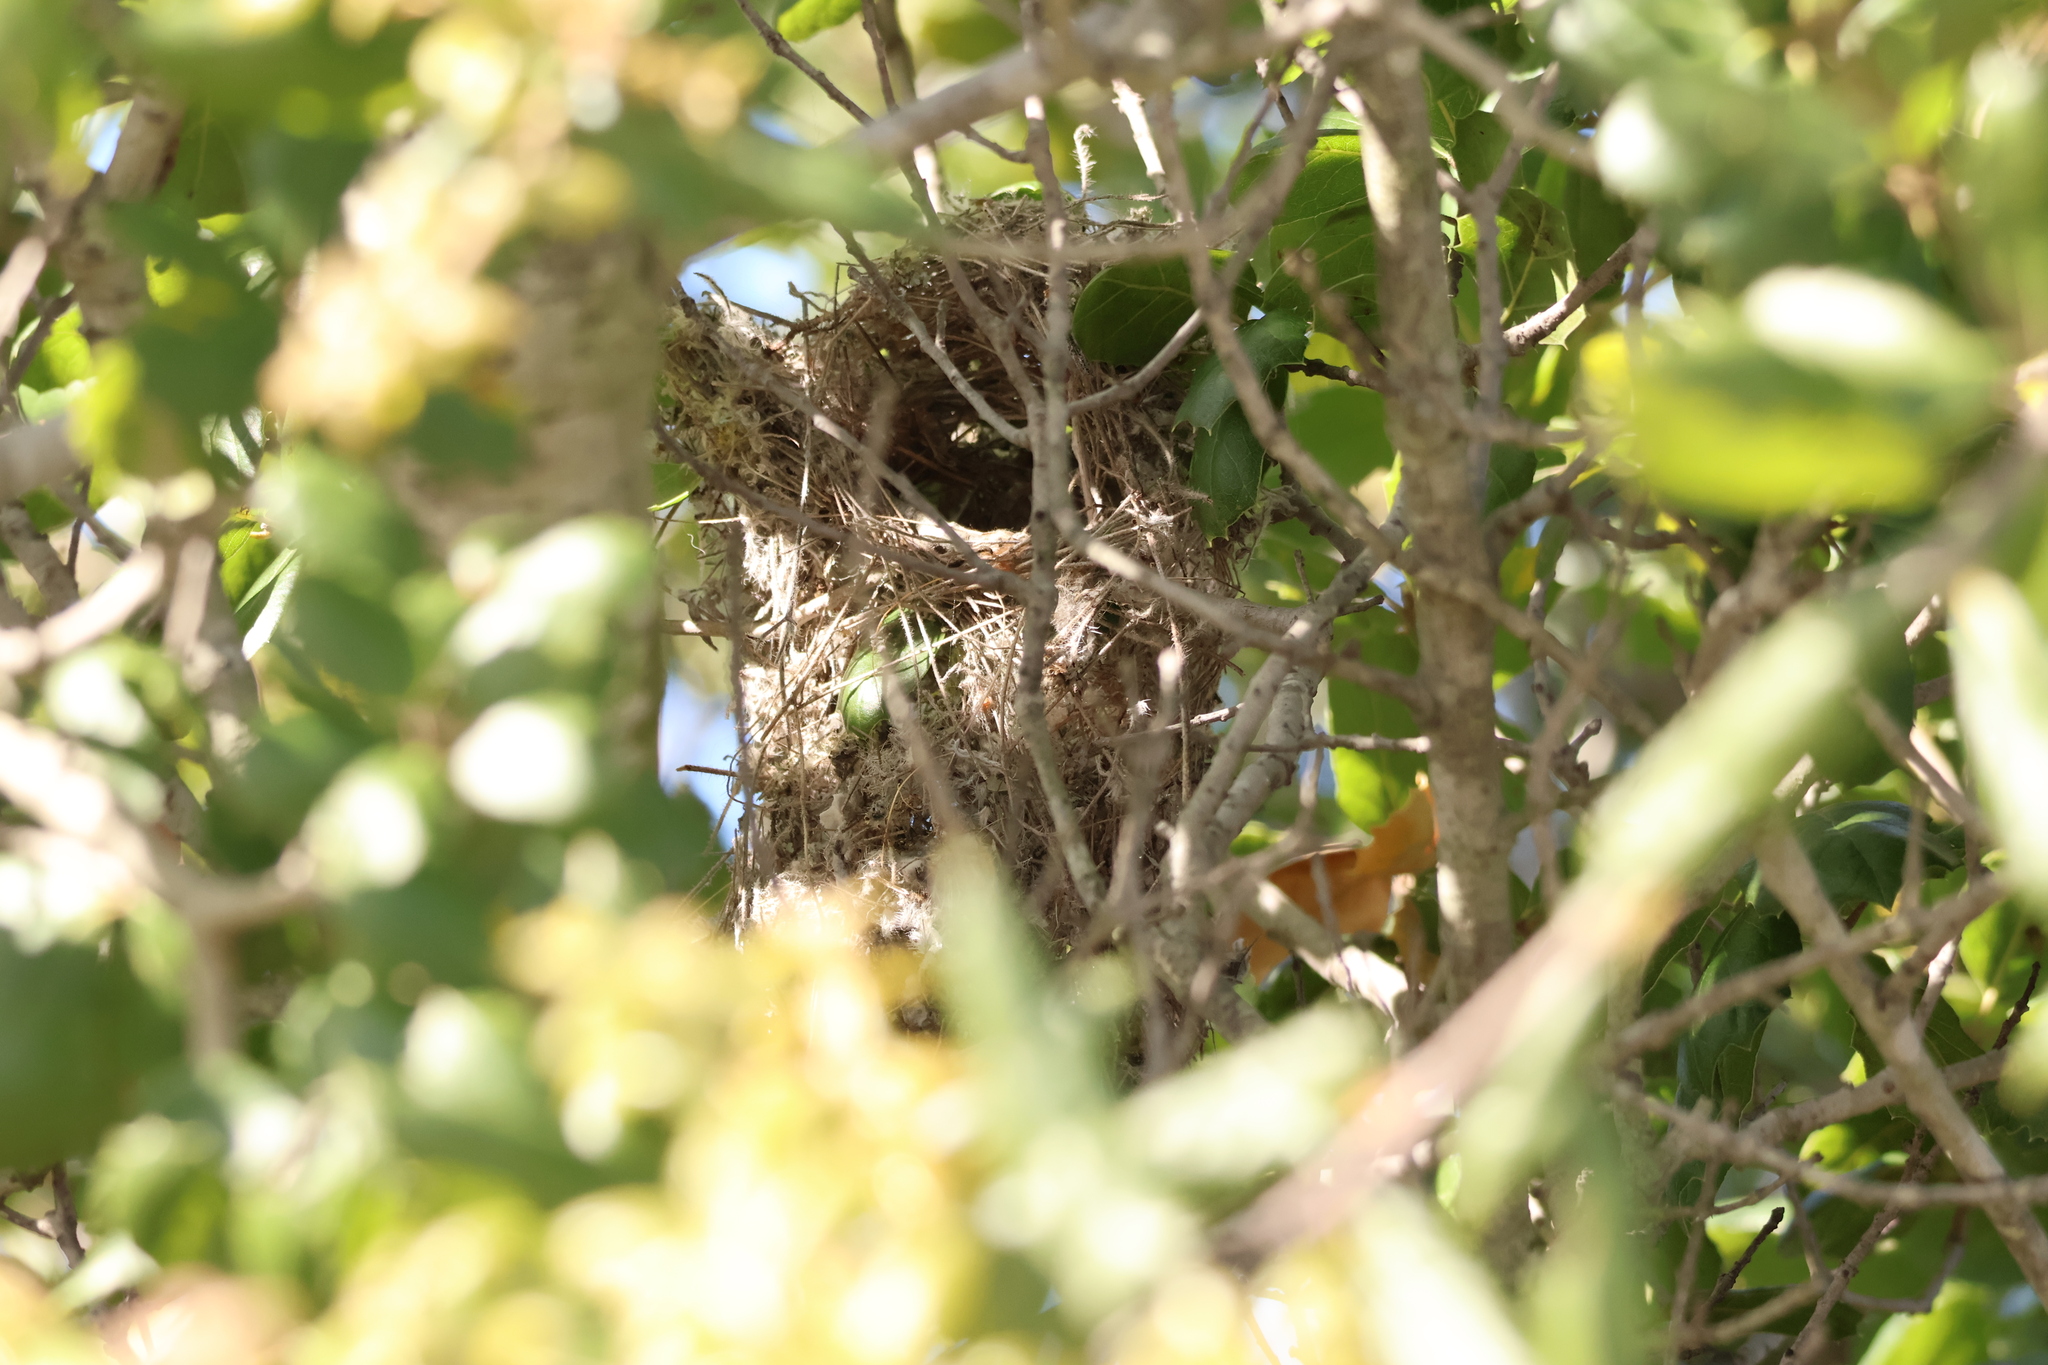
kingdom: Animalia
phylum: Chordata
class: Aves
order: Passeriformes
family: Aegithalidae
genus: Psaltriparus
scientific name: Psaltriparus minimus
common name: American bushtit
